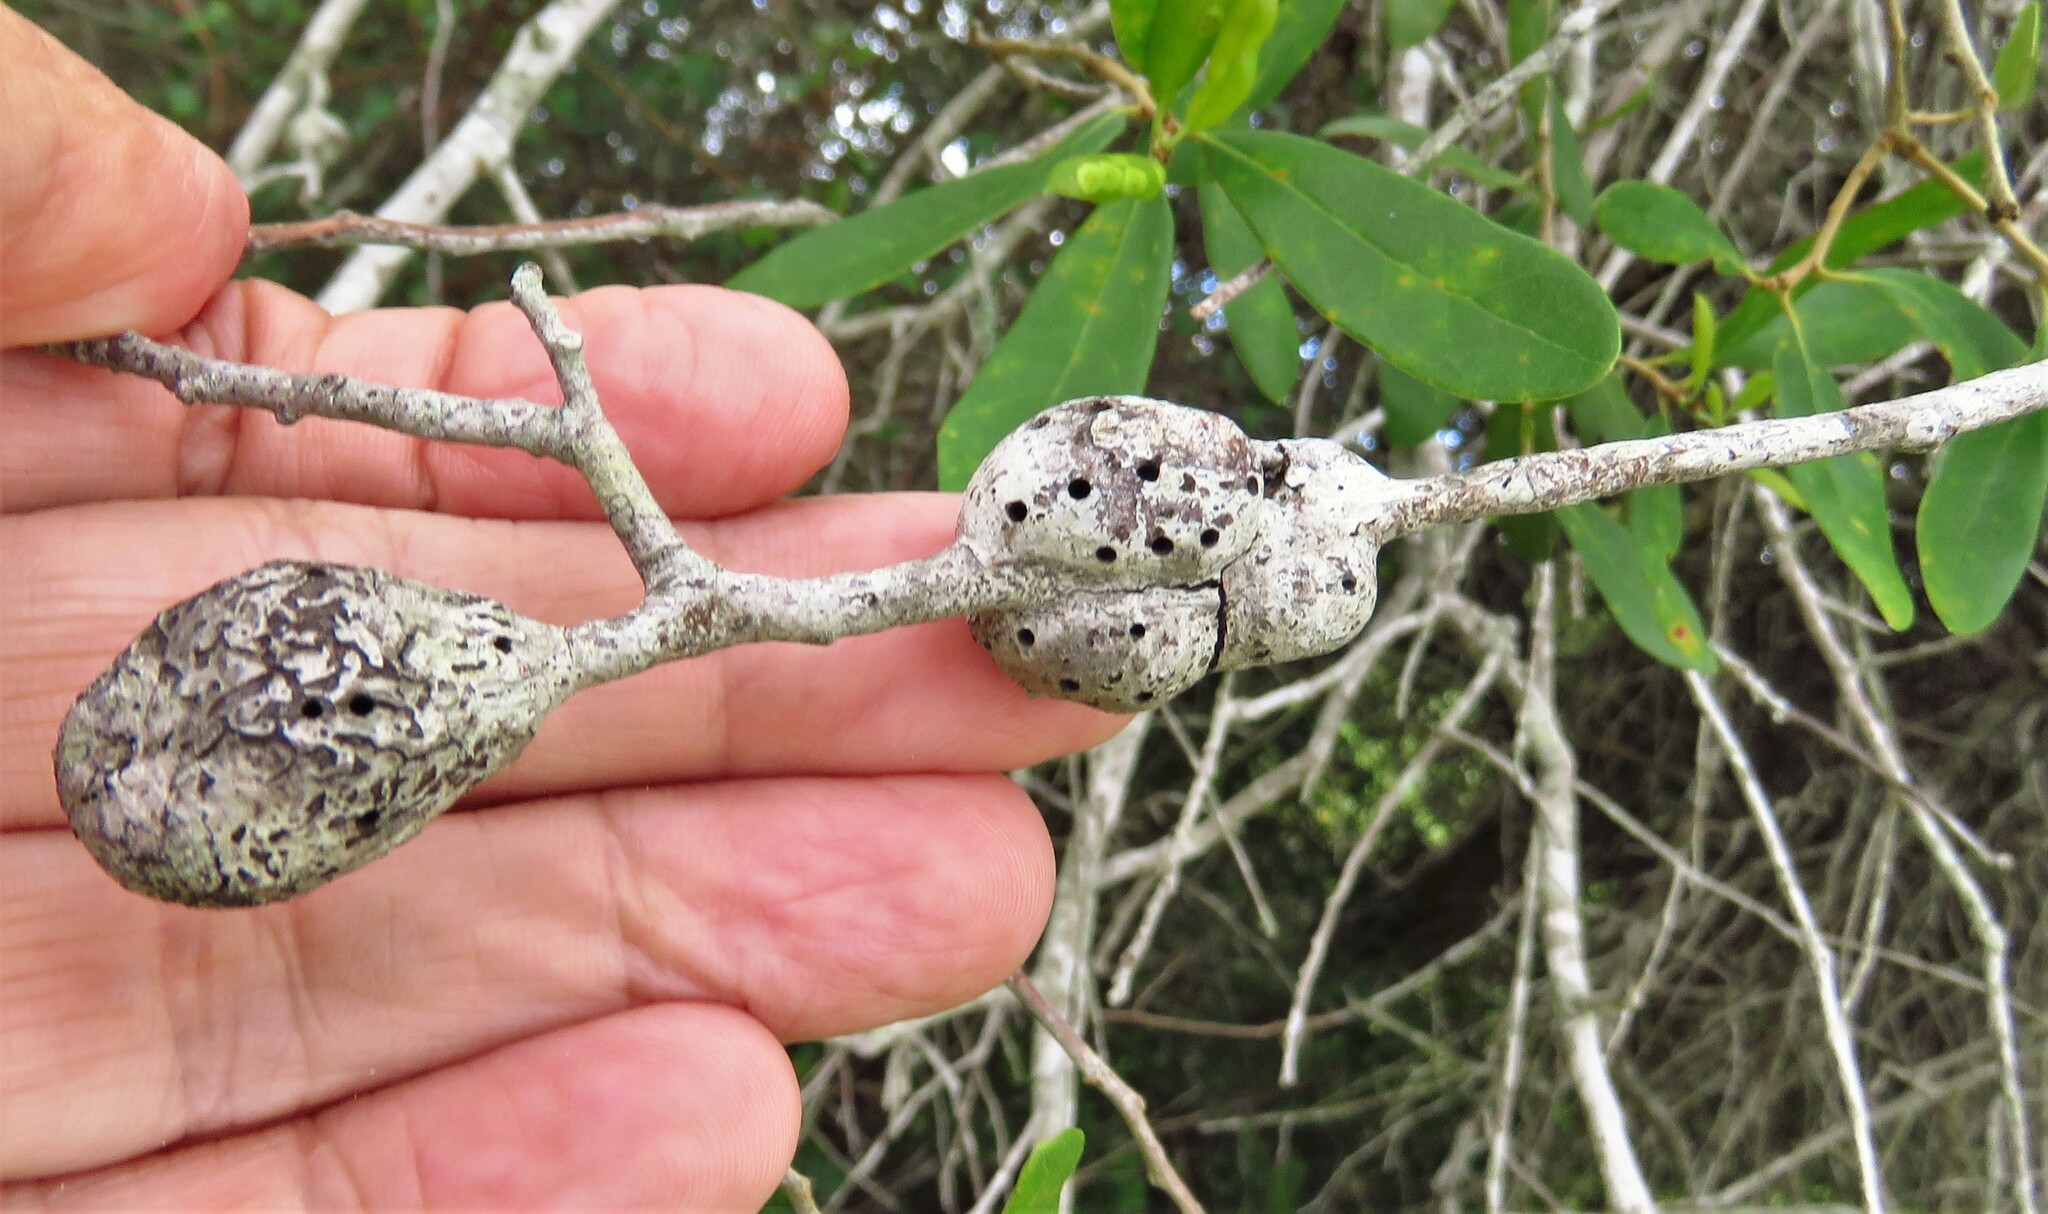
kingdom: Animalia
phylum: Arthropoda
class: Insecta
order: Hymenoptera
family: Cynipidae
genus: Callirhytis
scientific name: Callirhytis
